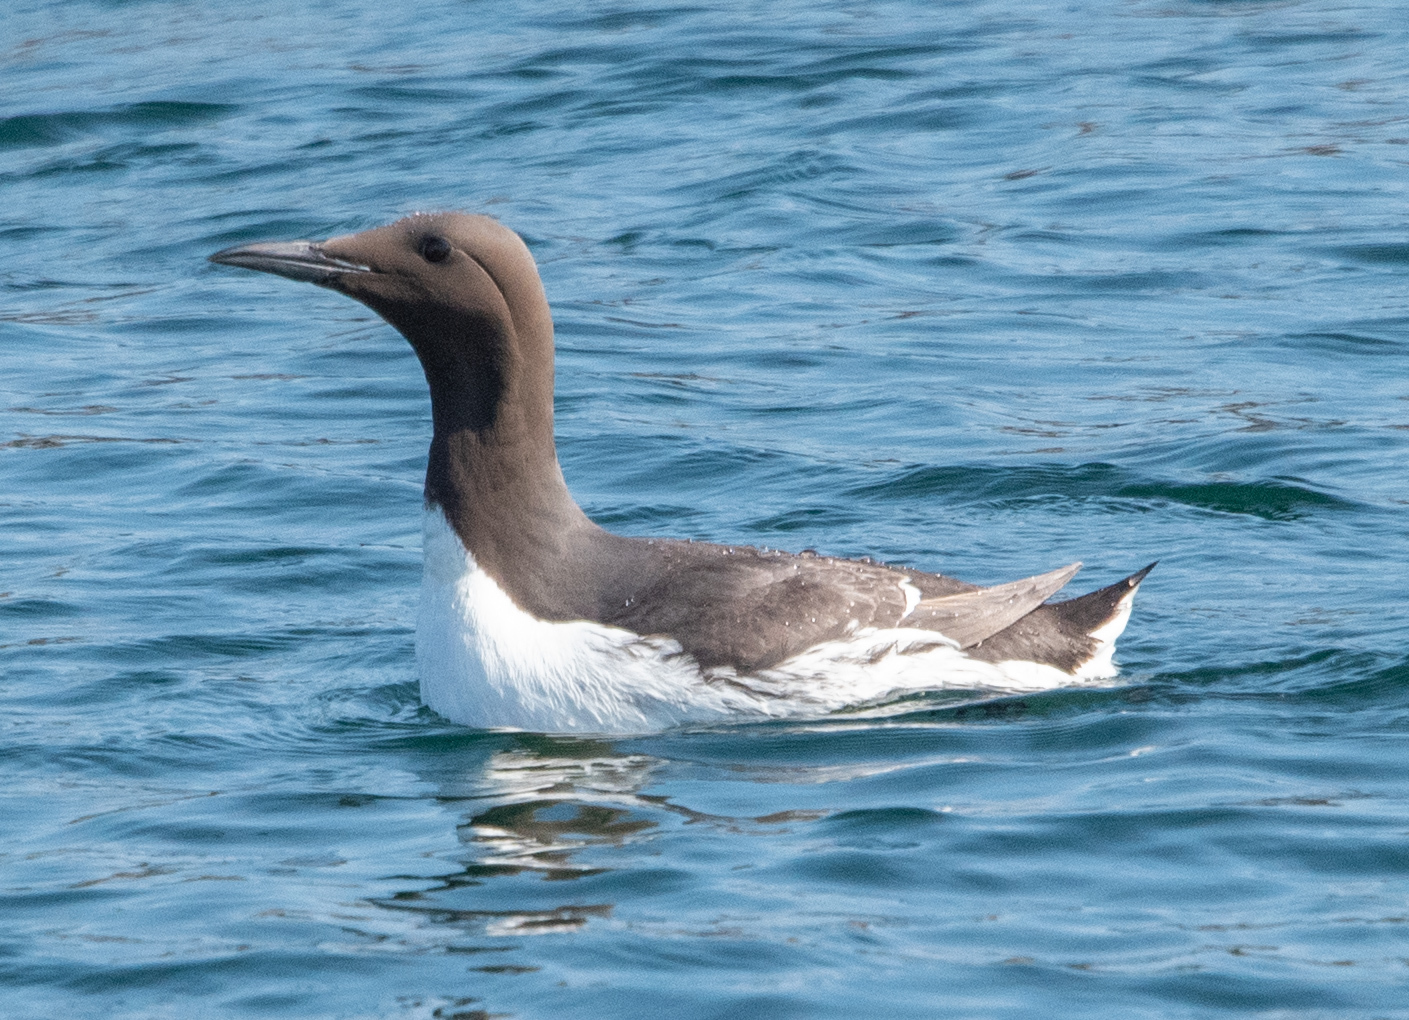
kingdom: Animalia
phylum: Chordata
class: Aves
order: Charadriiformes
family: Alcidae
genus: Uria
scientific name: Uria aalge
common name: Common murre
